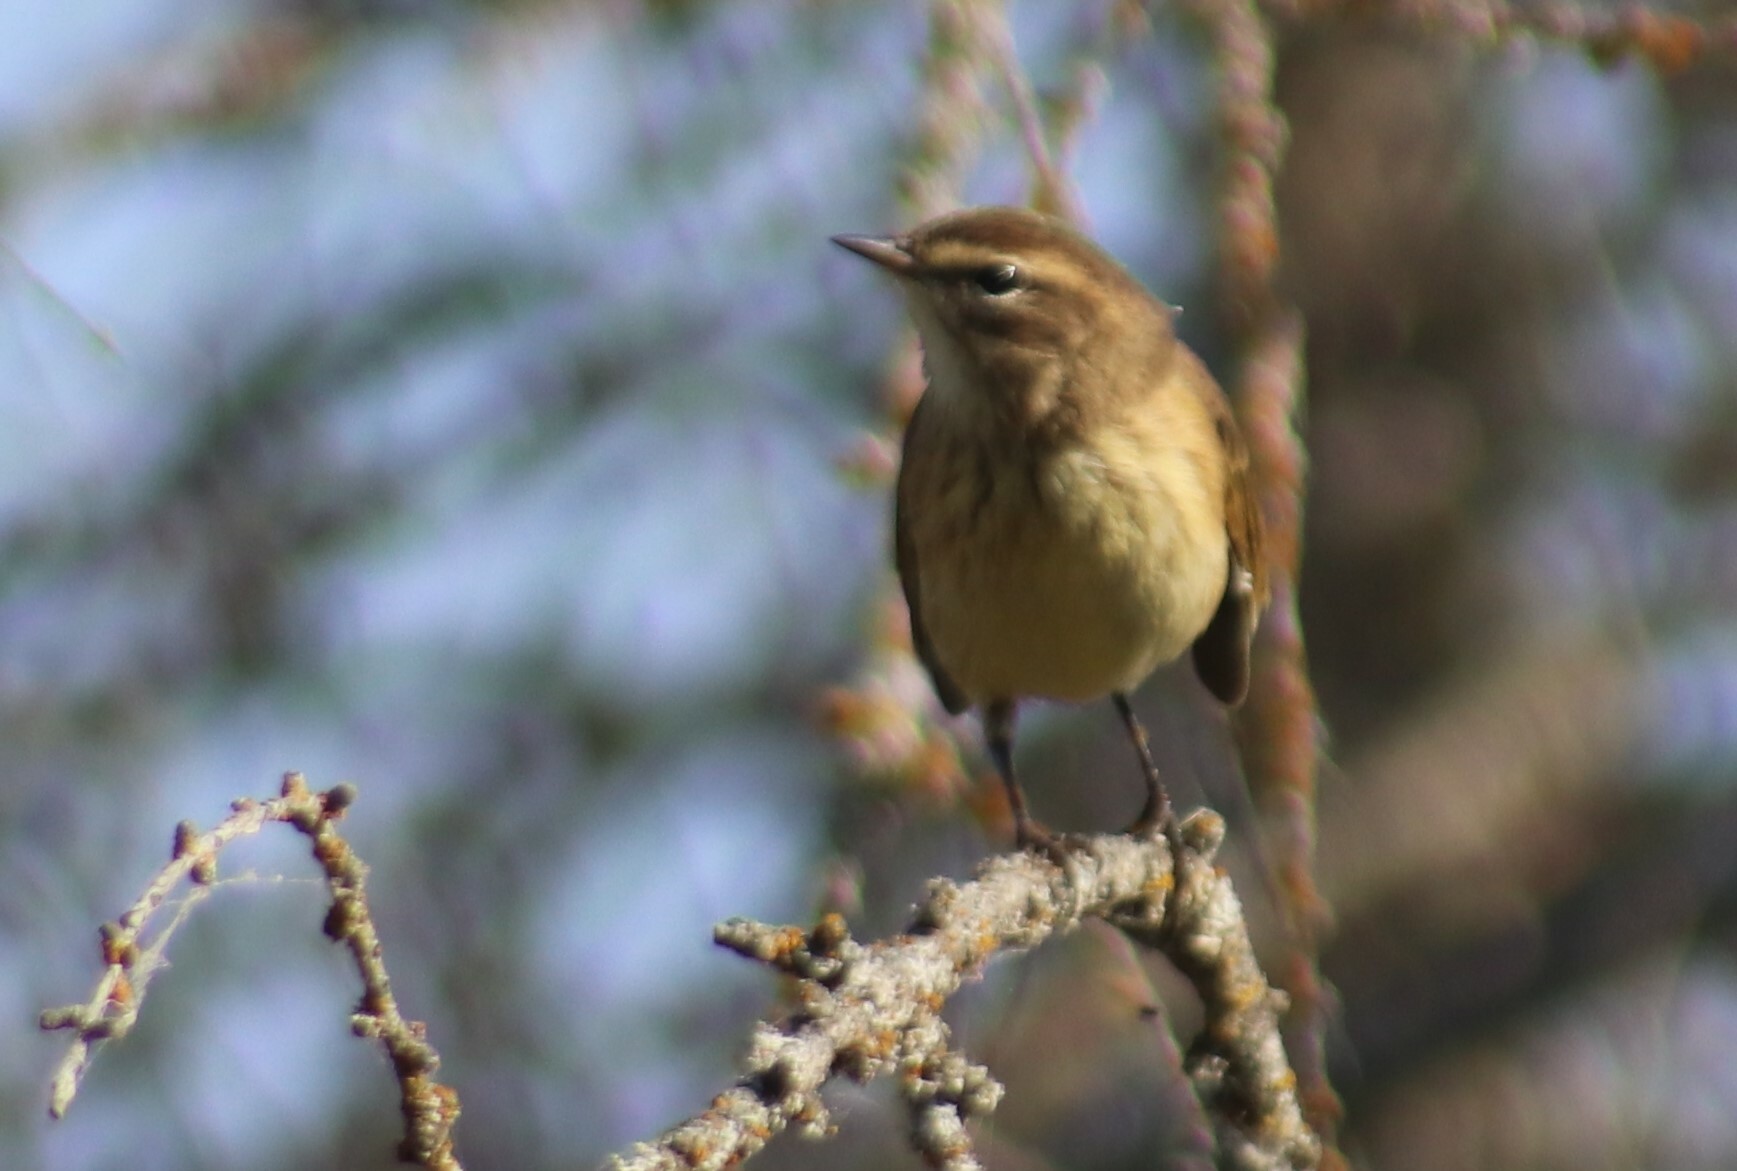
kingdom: Animalia
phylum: Chordata
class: Aves
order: Passeriformes
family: Parulidae
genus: Setophaga
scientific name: Setophaga palmarum
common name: Palm warbler
